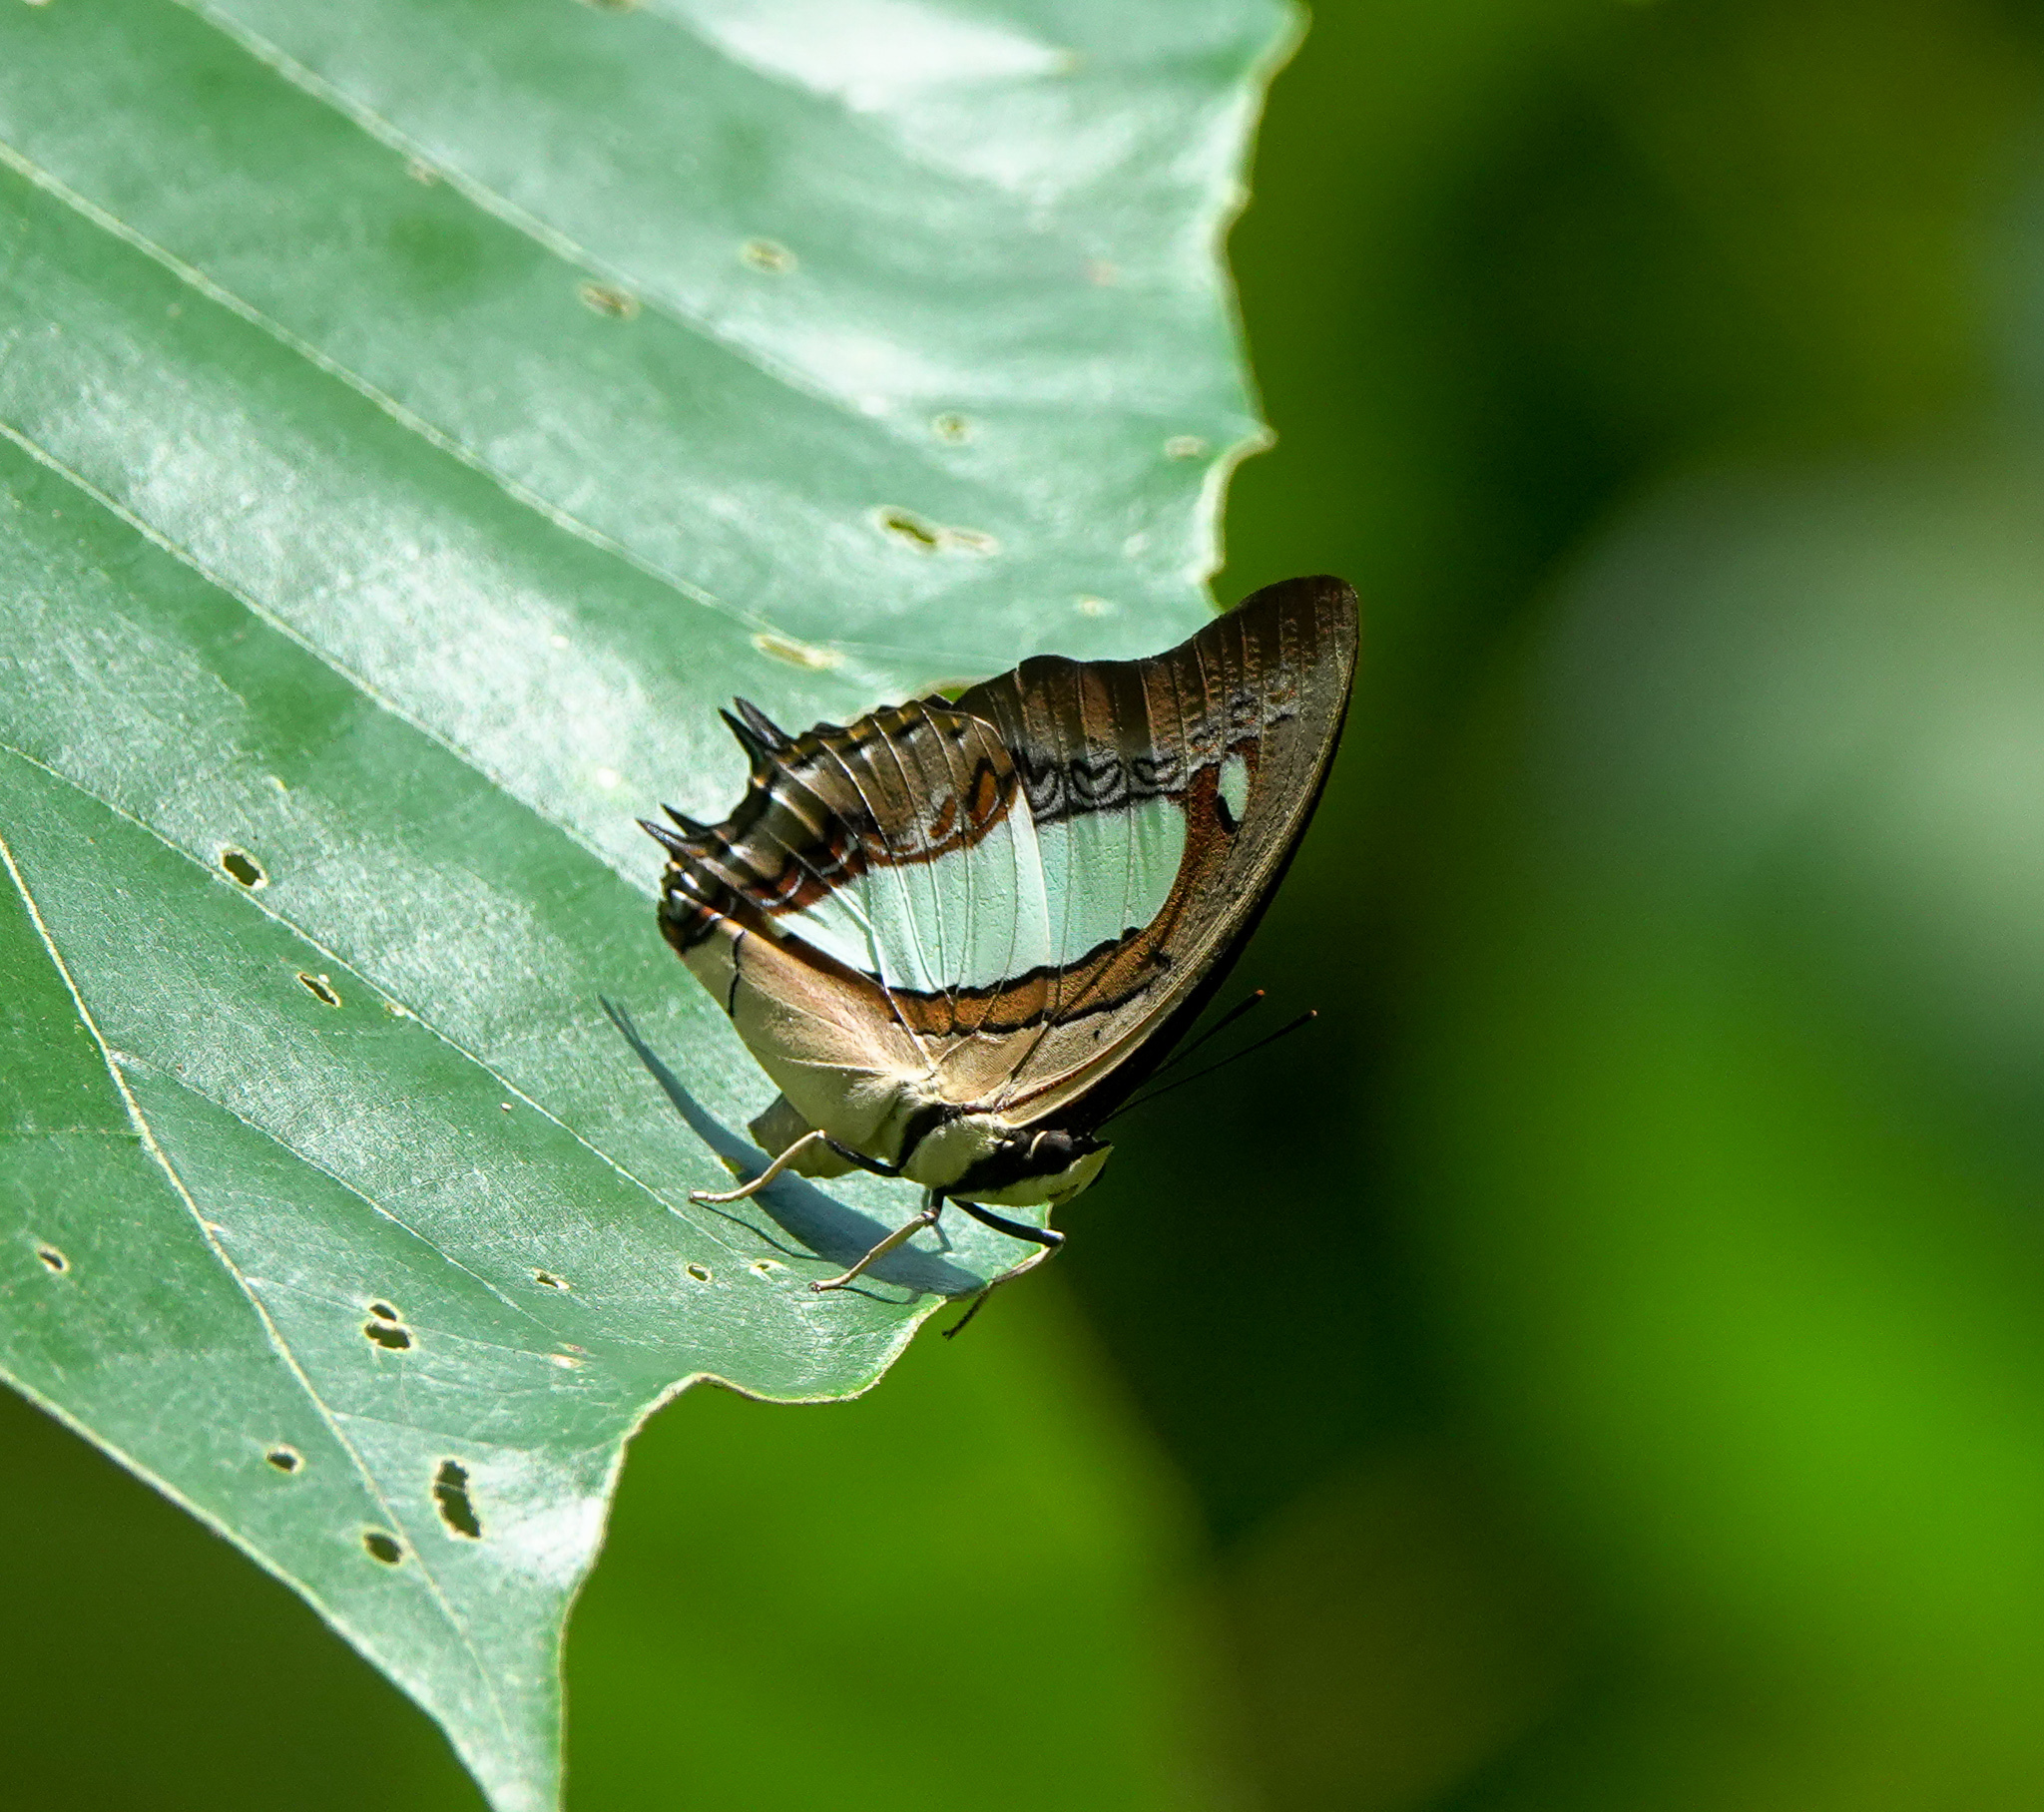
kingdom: Animalia
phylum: Arthropoda
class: Insecta
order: Lepidoptera
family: Nymphalidae
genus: Polyura
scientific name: Polyura
